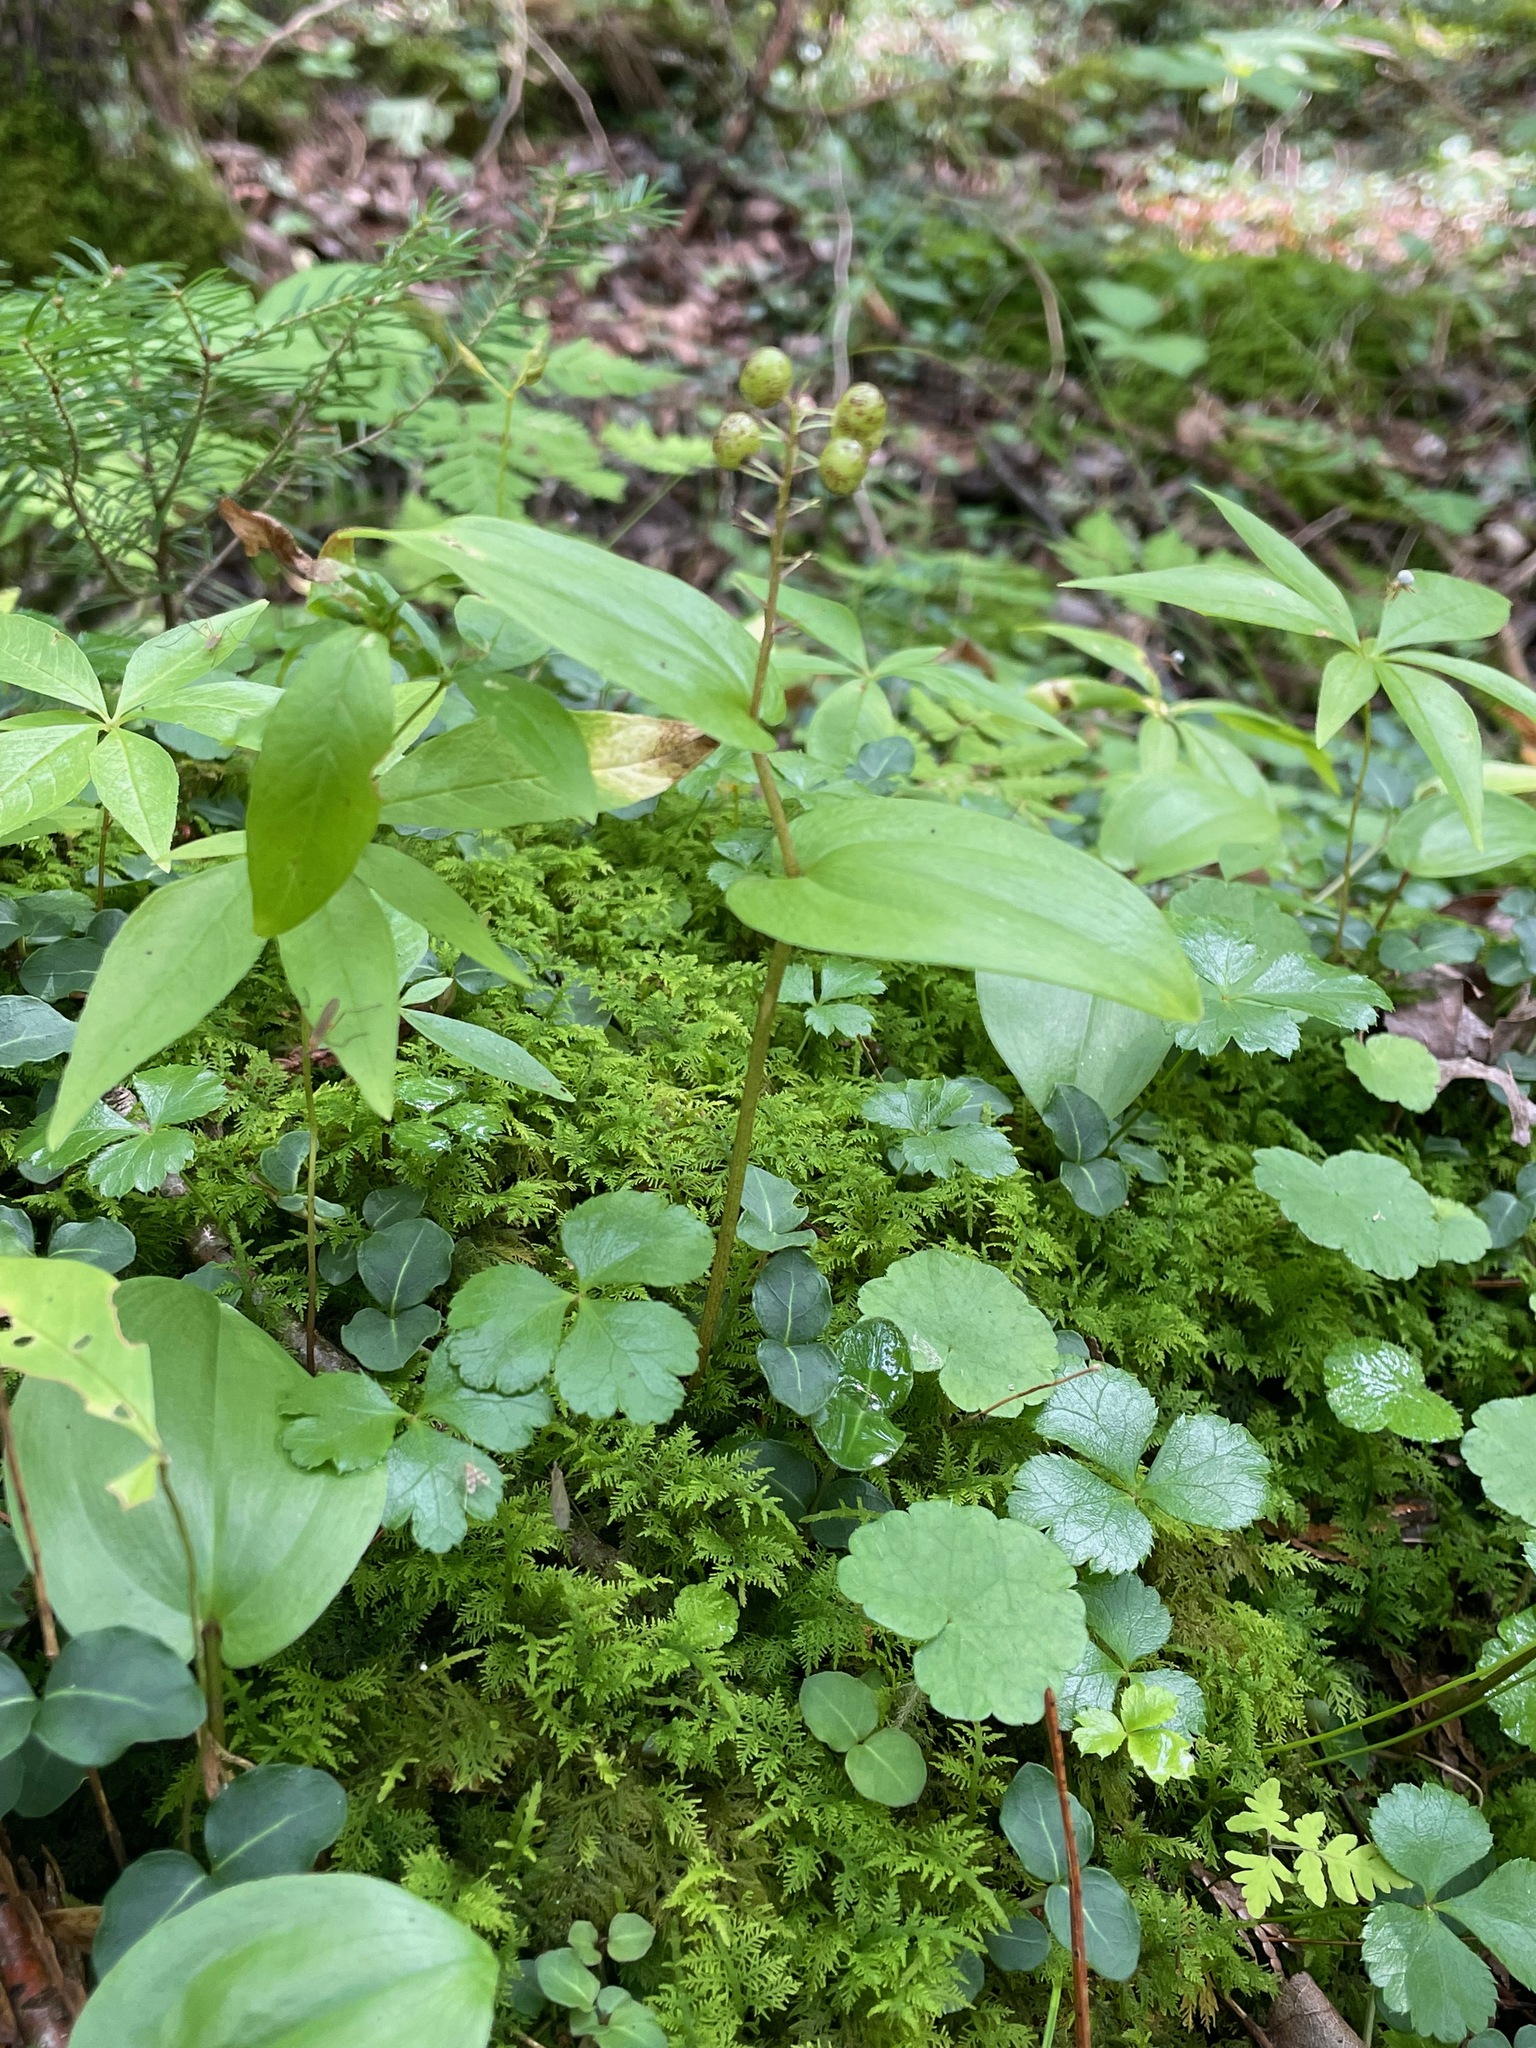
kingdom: Plantae
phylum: Tracheophyta
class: Liliopsida
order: Asparagales
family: Asparagaceae
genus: Maianthemum
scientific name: Maianthemum canadense
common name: False lily-of-the-valley
